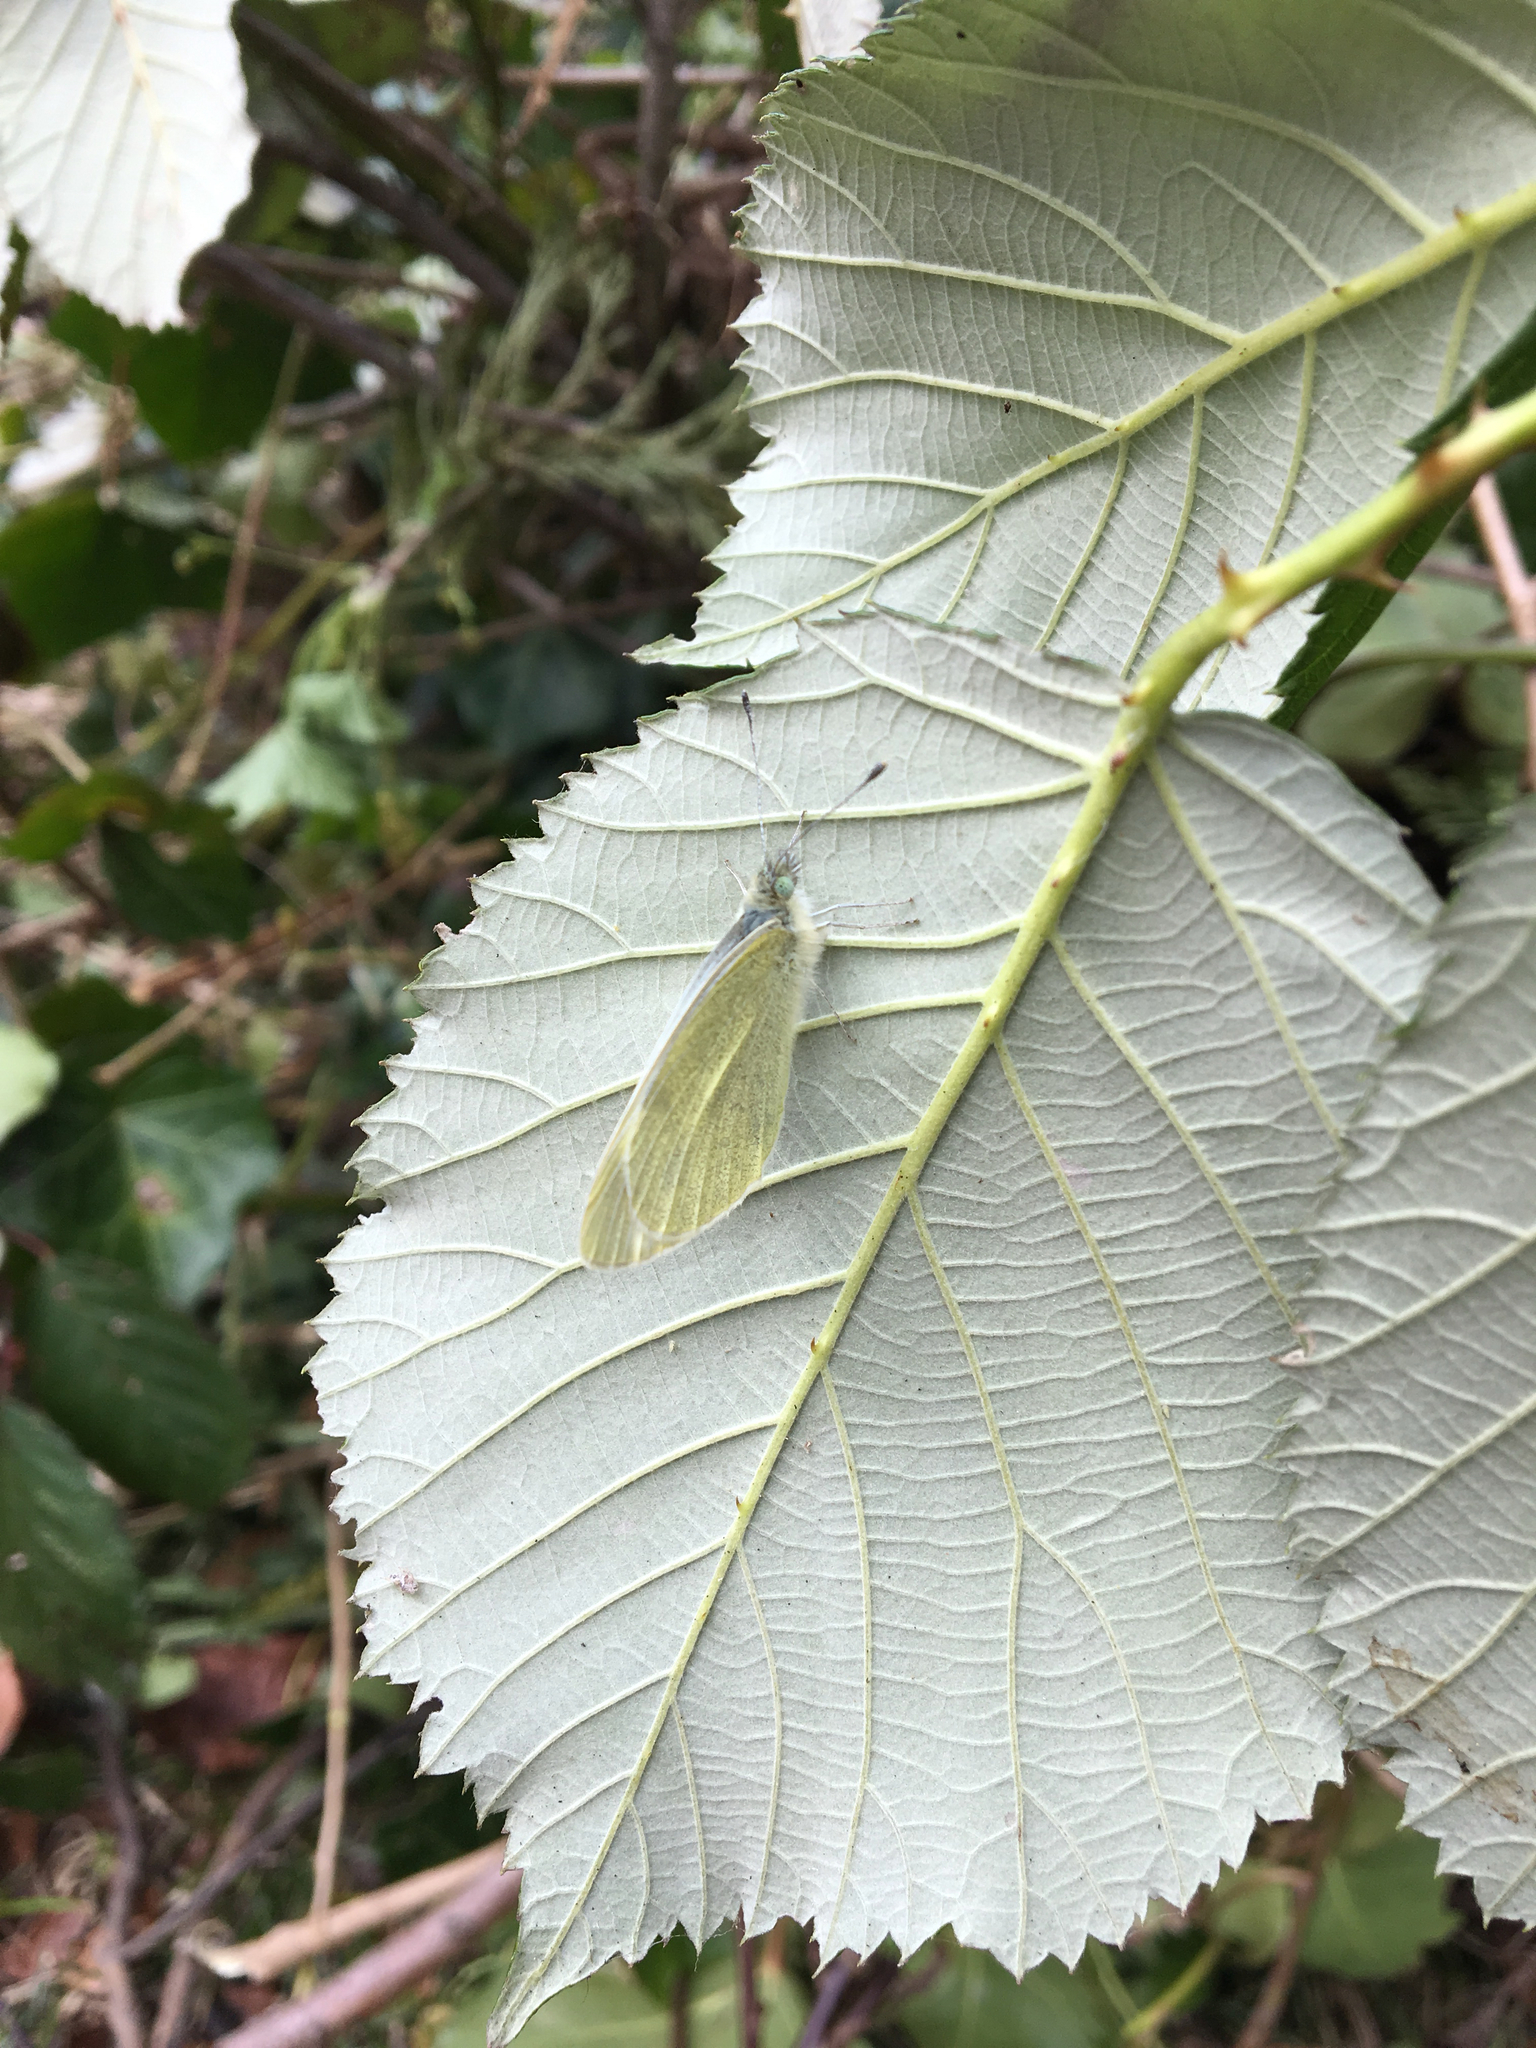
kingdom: Animalia
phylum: Arthropoda
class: Insecta
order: Lepidoptera
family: Pieridae
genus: Pieris
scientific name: Pieris rapae
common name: Small white
